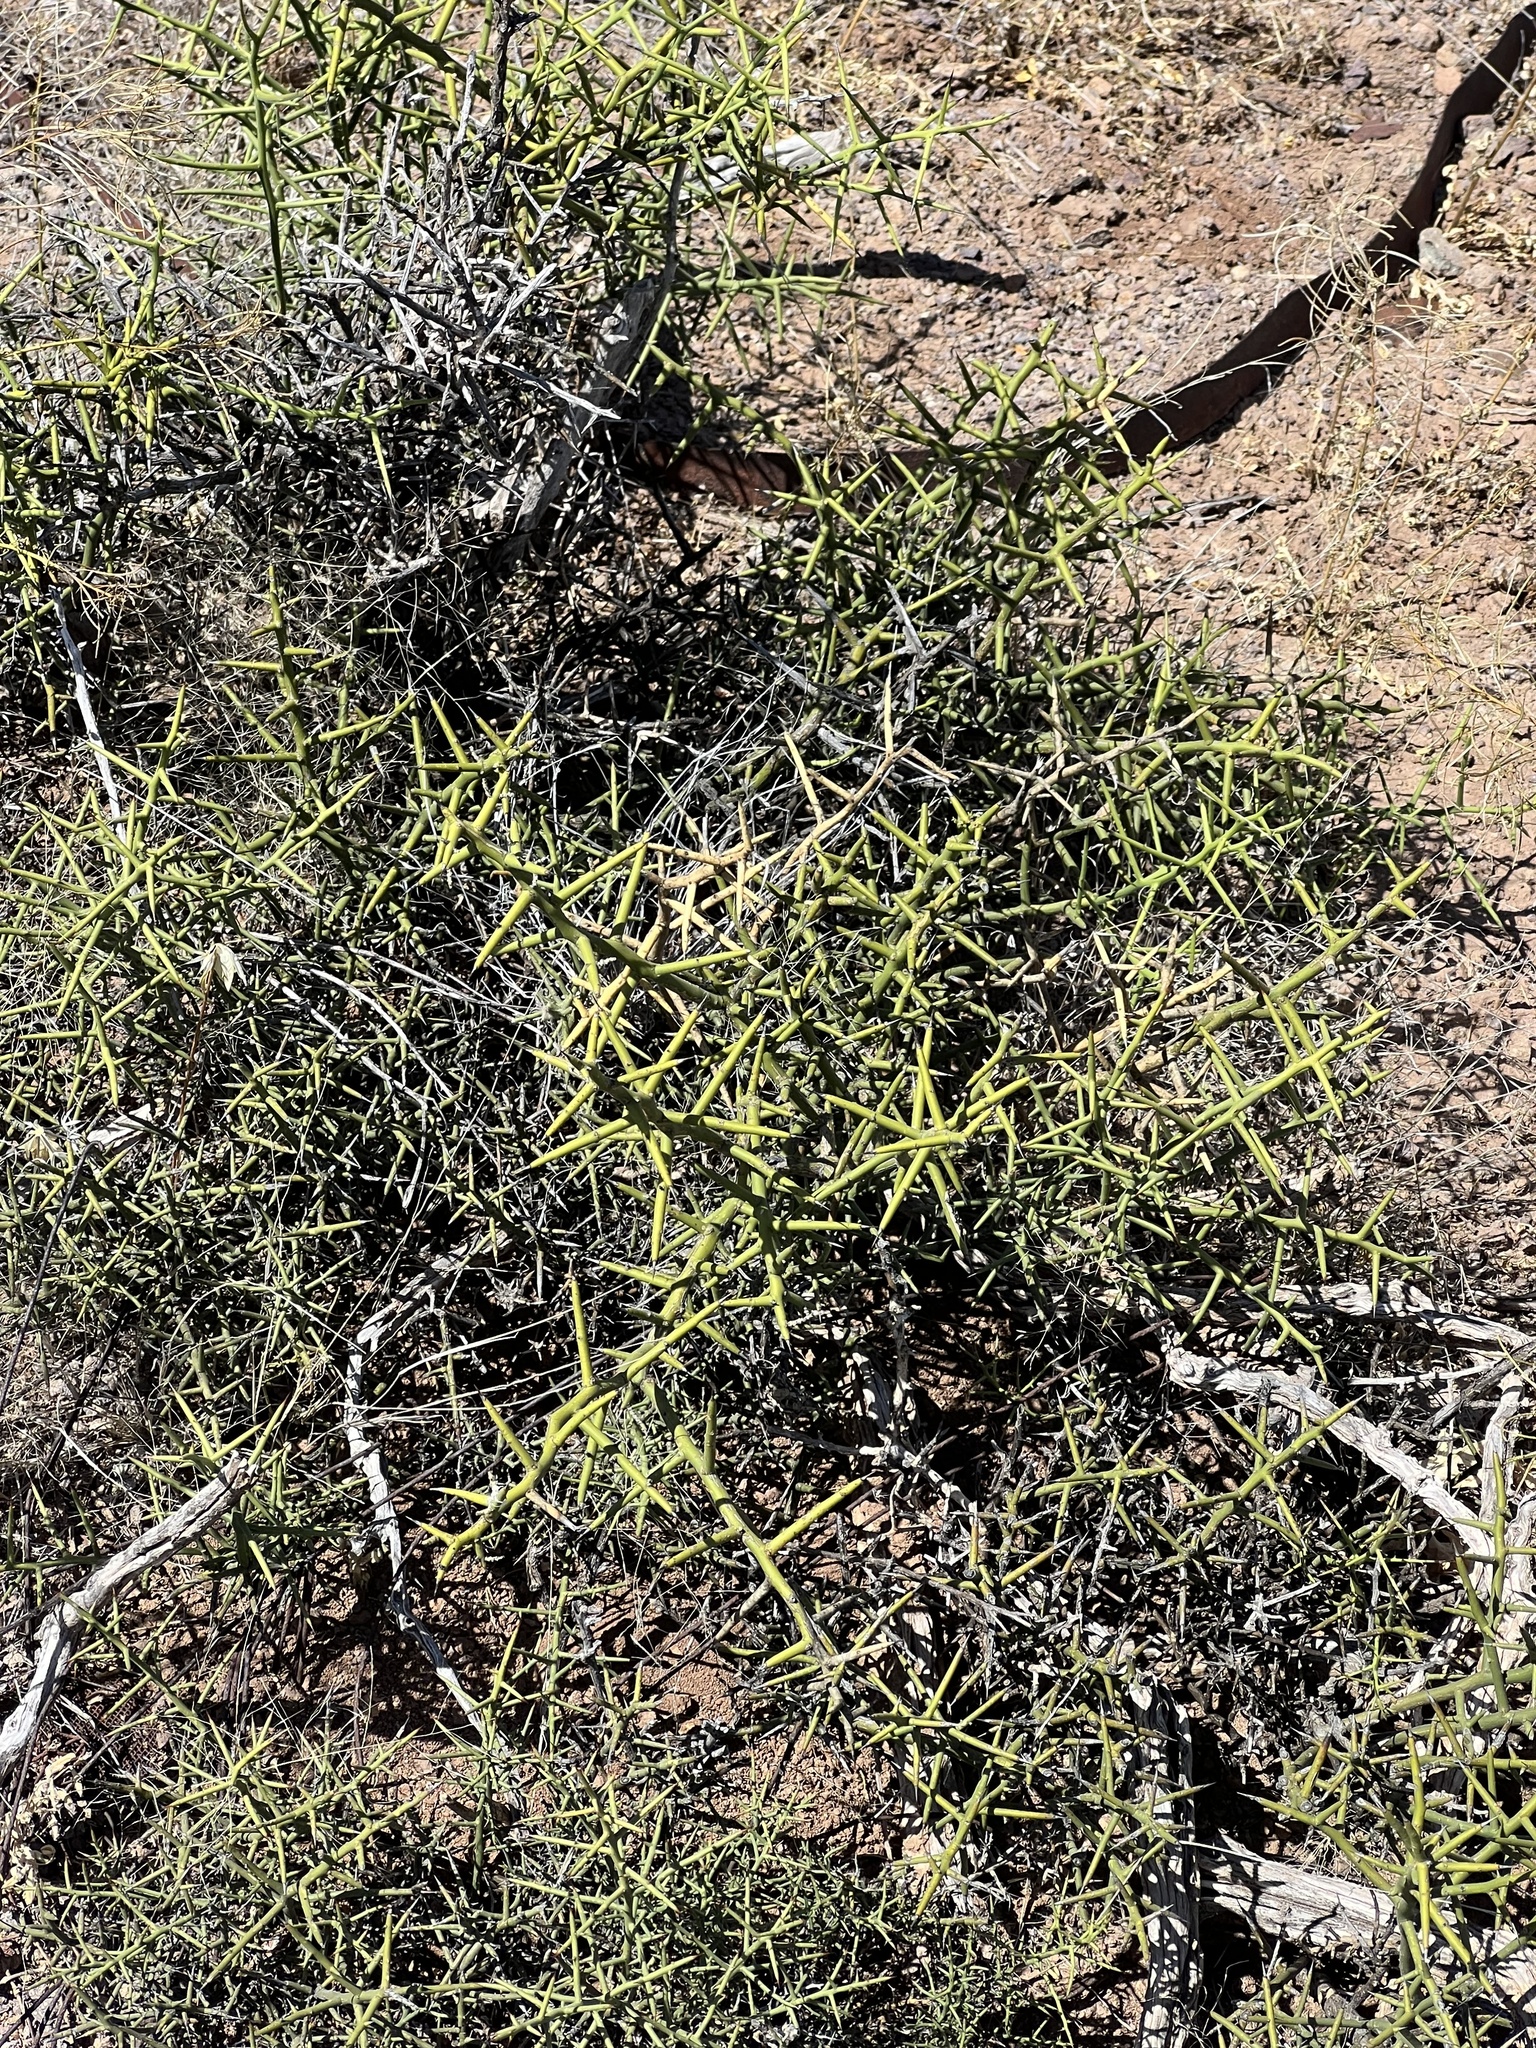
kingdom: Plantae
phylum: Tracheophyta
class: Magnoliopsida
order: Brassicales
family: Koeberliniaceae
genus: Koeberlinia
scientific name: Koeberlinia spinosa
